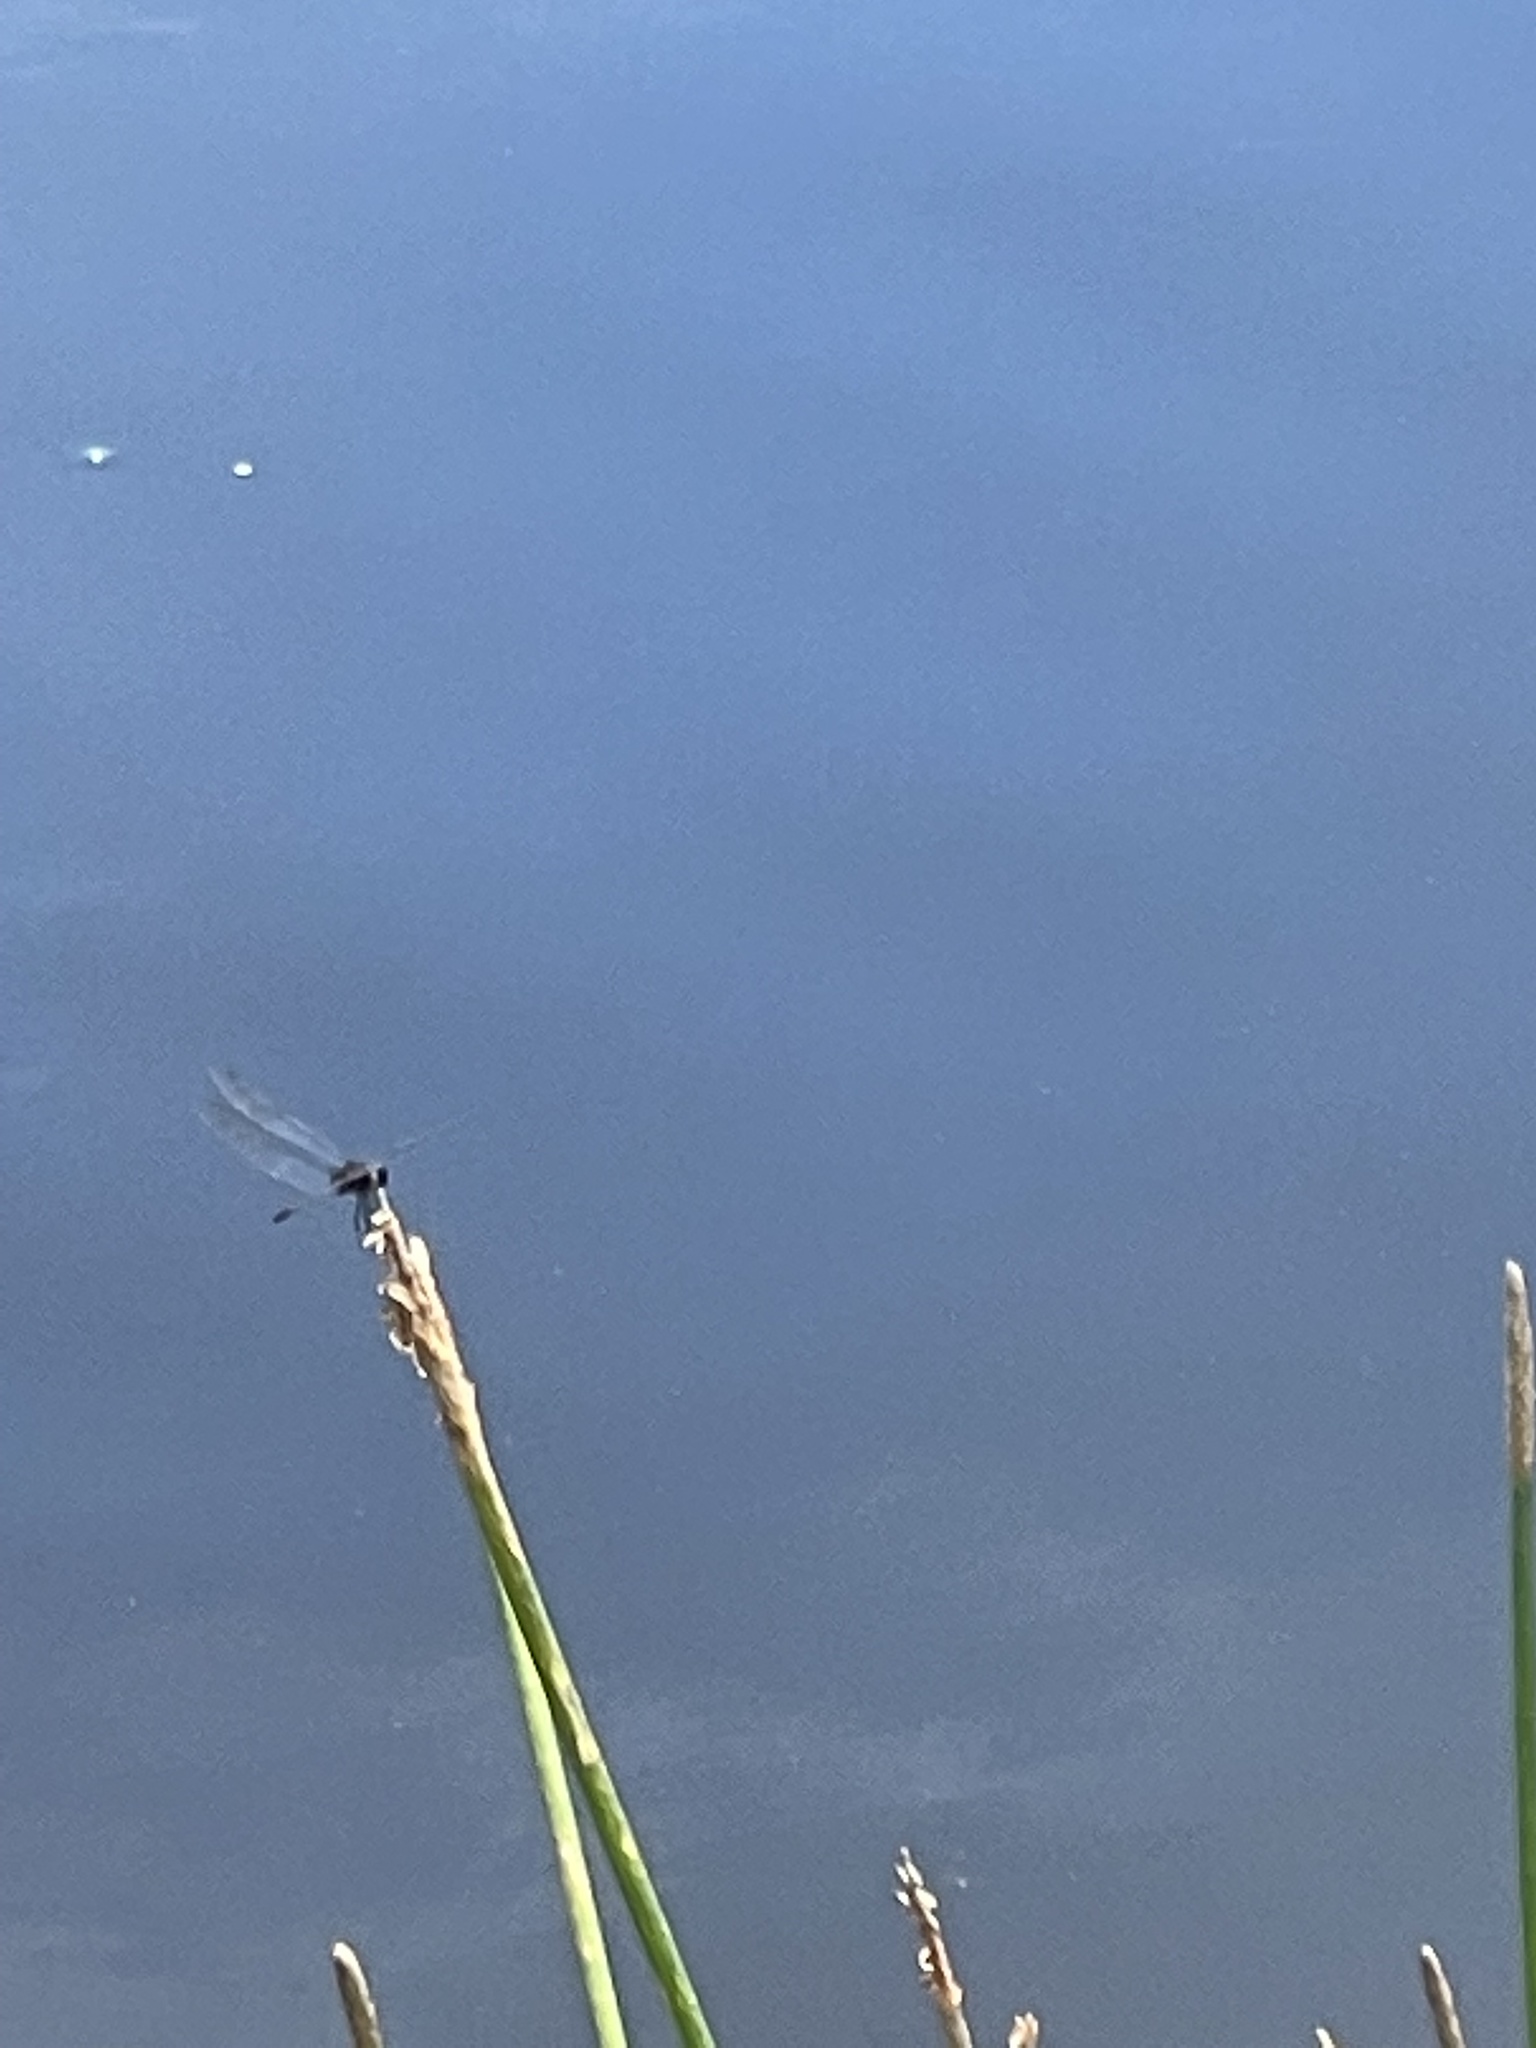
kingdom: Animalia
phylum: Arthropoda
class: Insecta
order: Odonata
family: Libellulidae
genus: Idiataphe
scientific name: Idiataphe cubensis
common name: Metallic pennant
